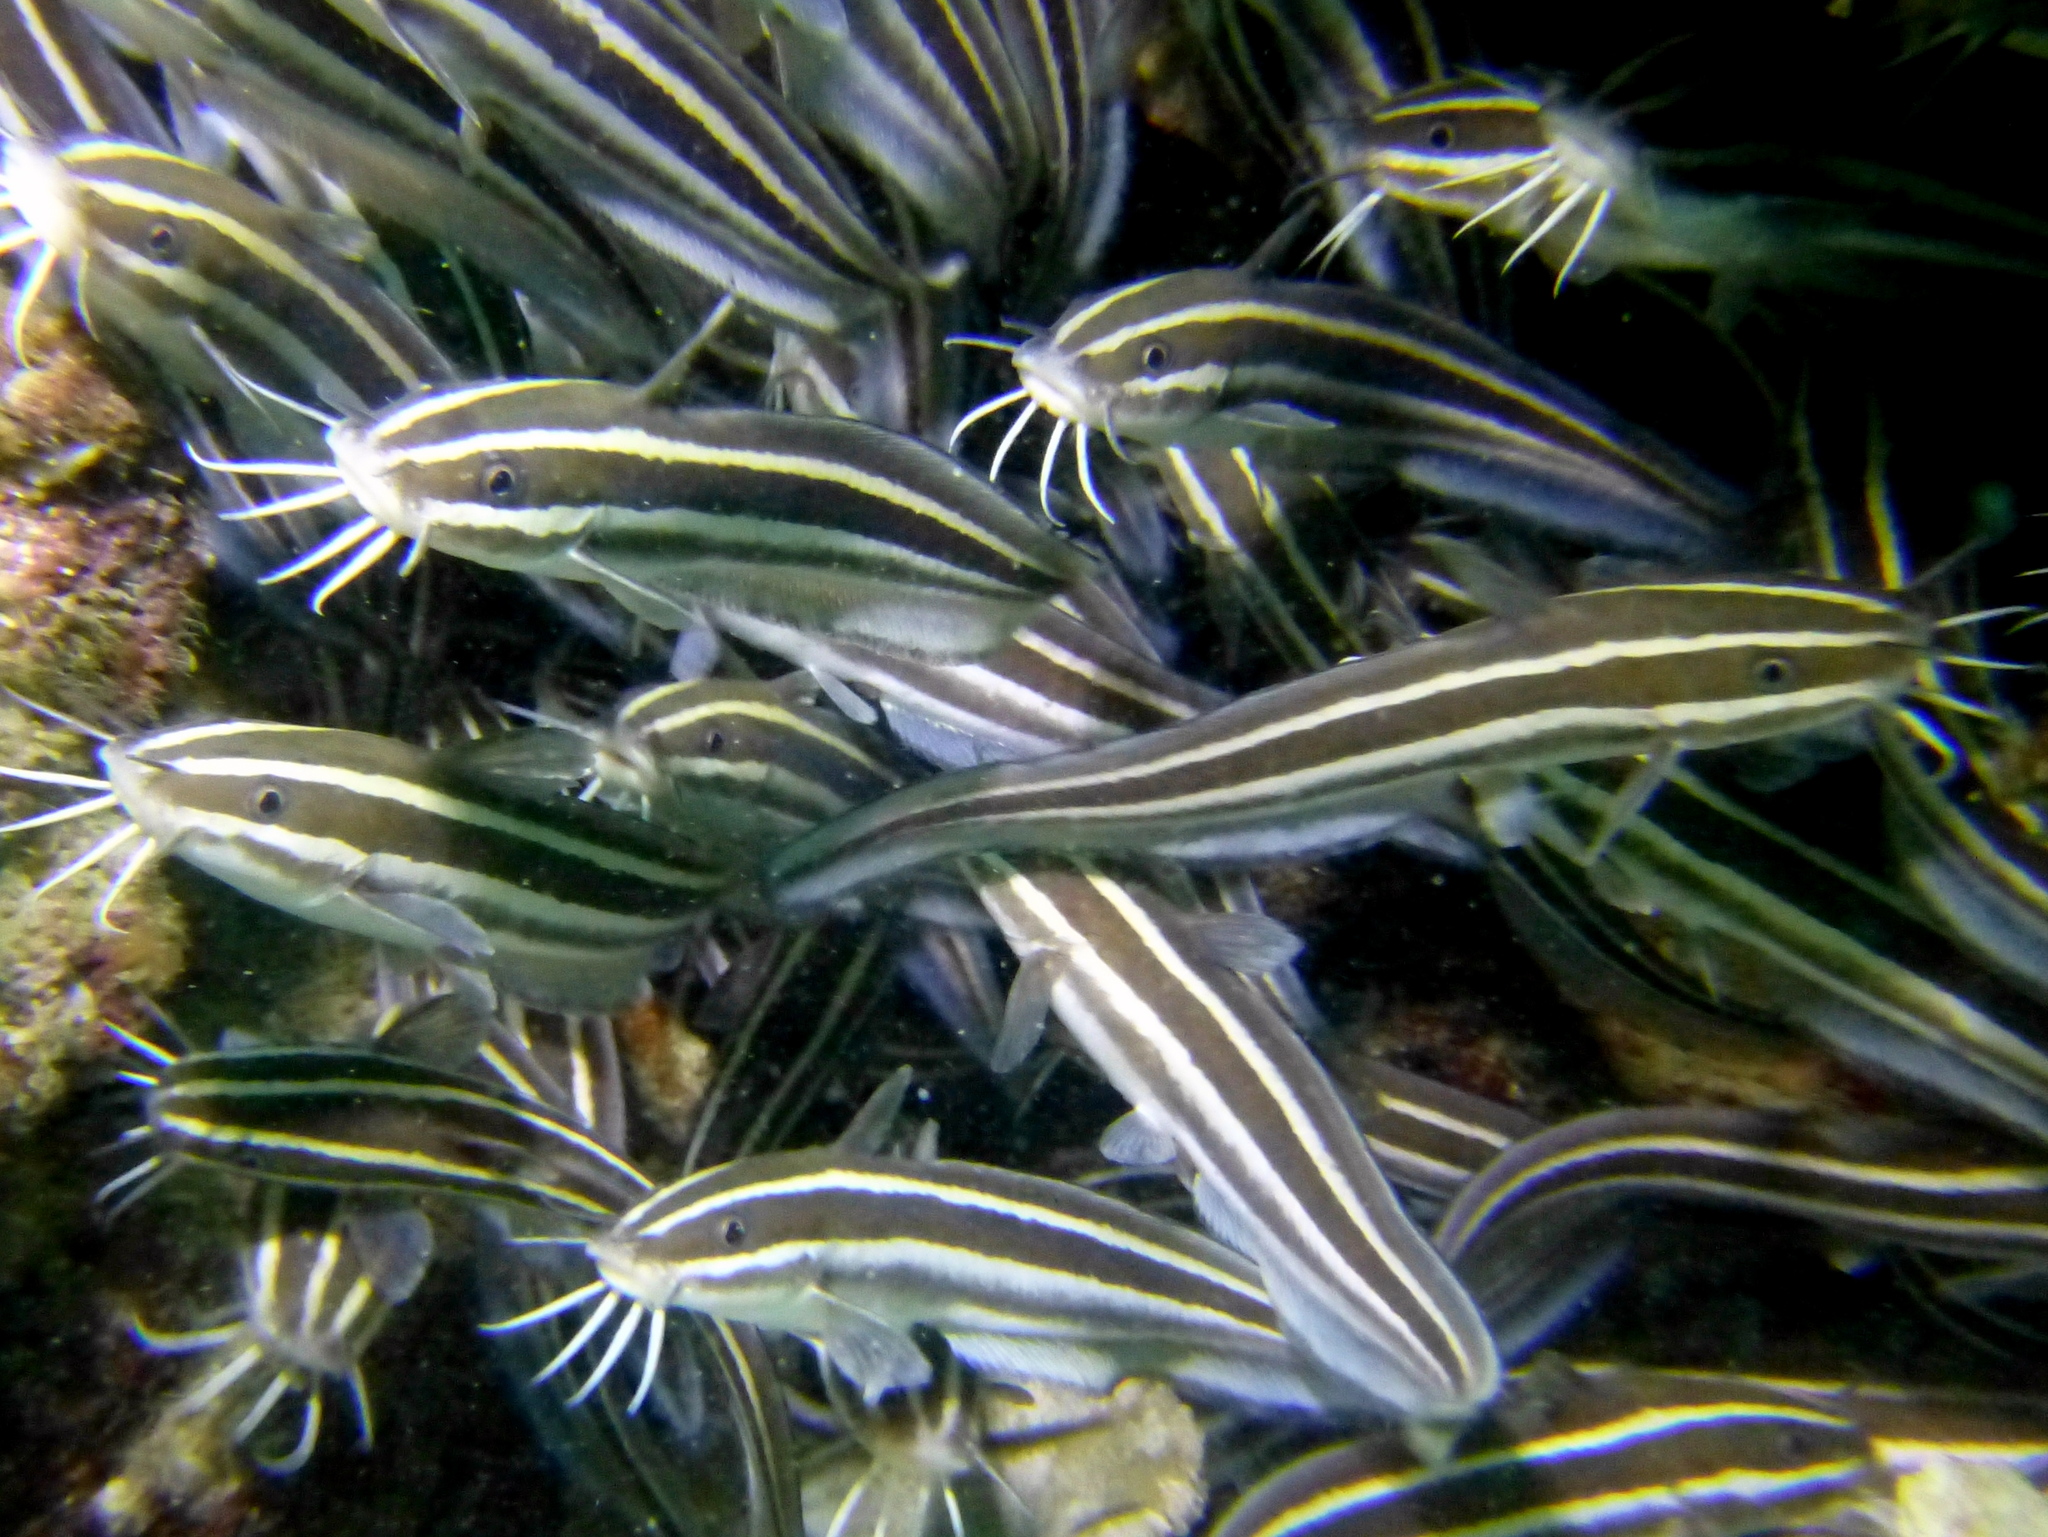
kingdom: Animalia
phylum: Chordata
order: Siluriformes
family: Plotosidae
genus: Plotosus
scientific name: Plotosus lineatus
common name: Striped eel catfish
